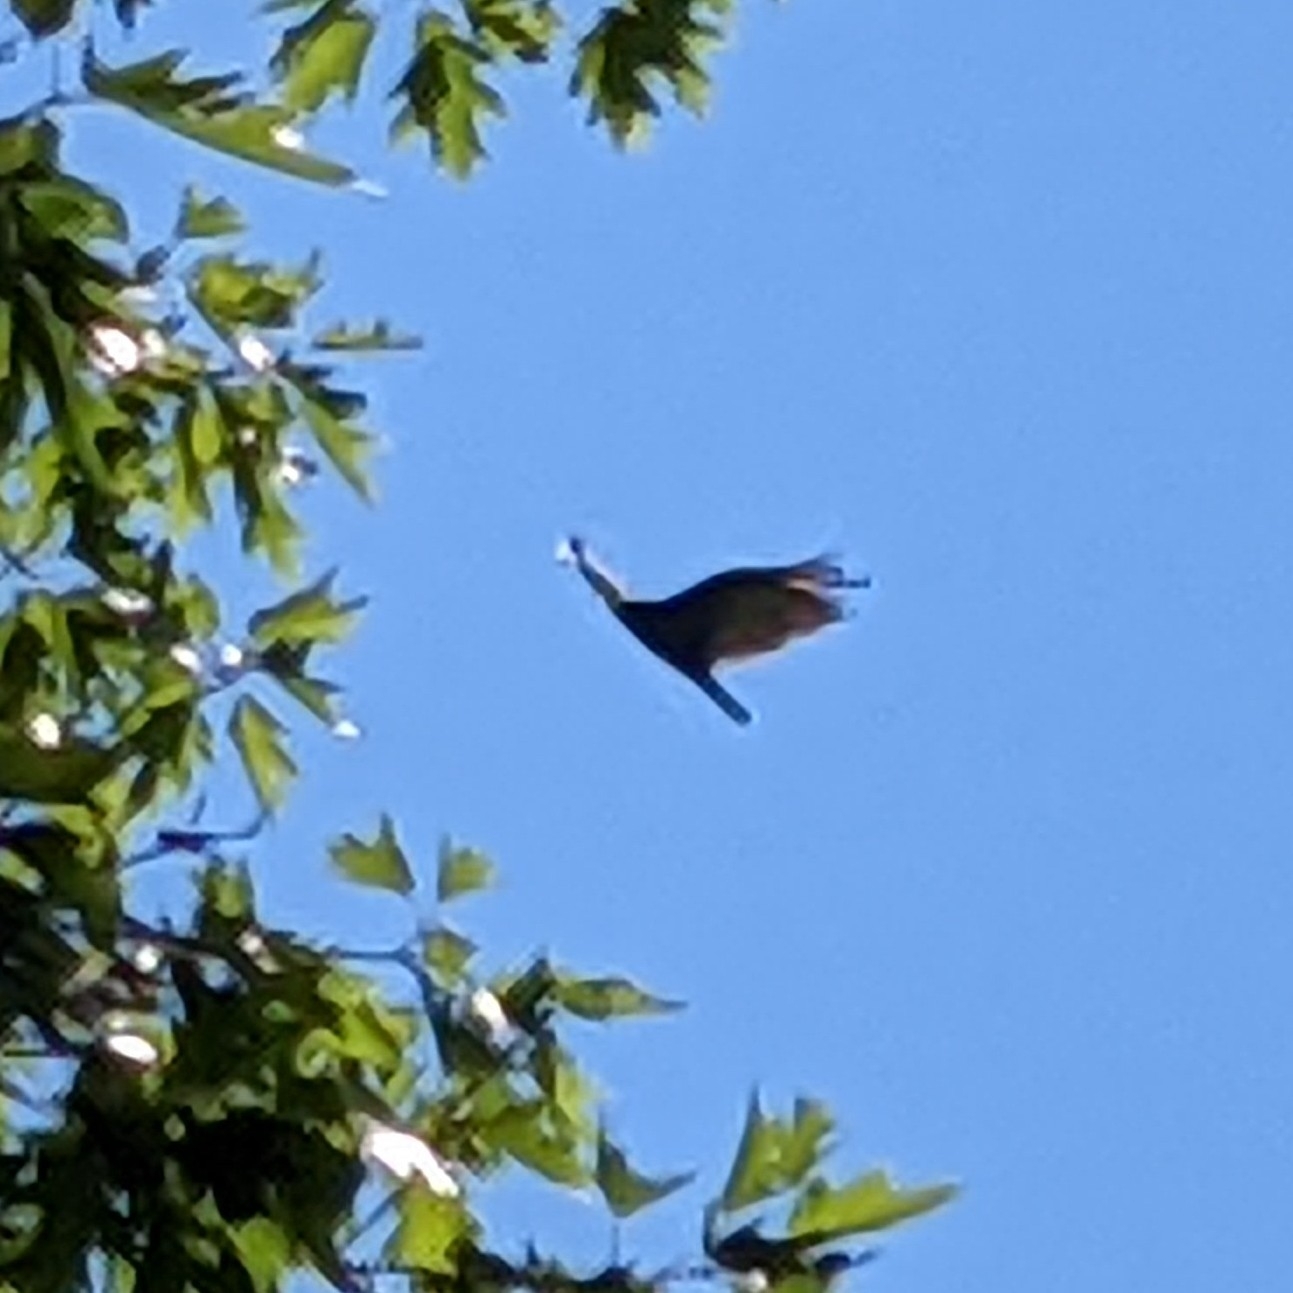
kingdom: Animalia
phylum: Chordata
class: Aves
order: Accipitriformes
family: Cathartidae
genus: Cathartes
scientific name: Cathartes aura
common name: Turkey vulture
